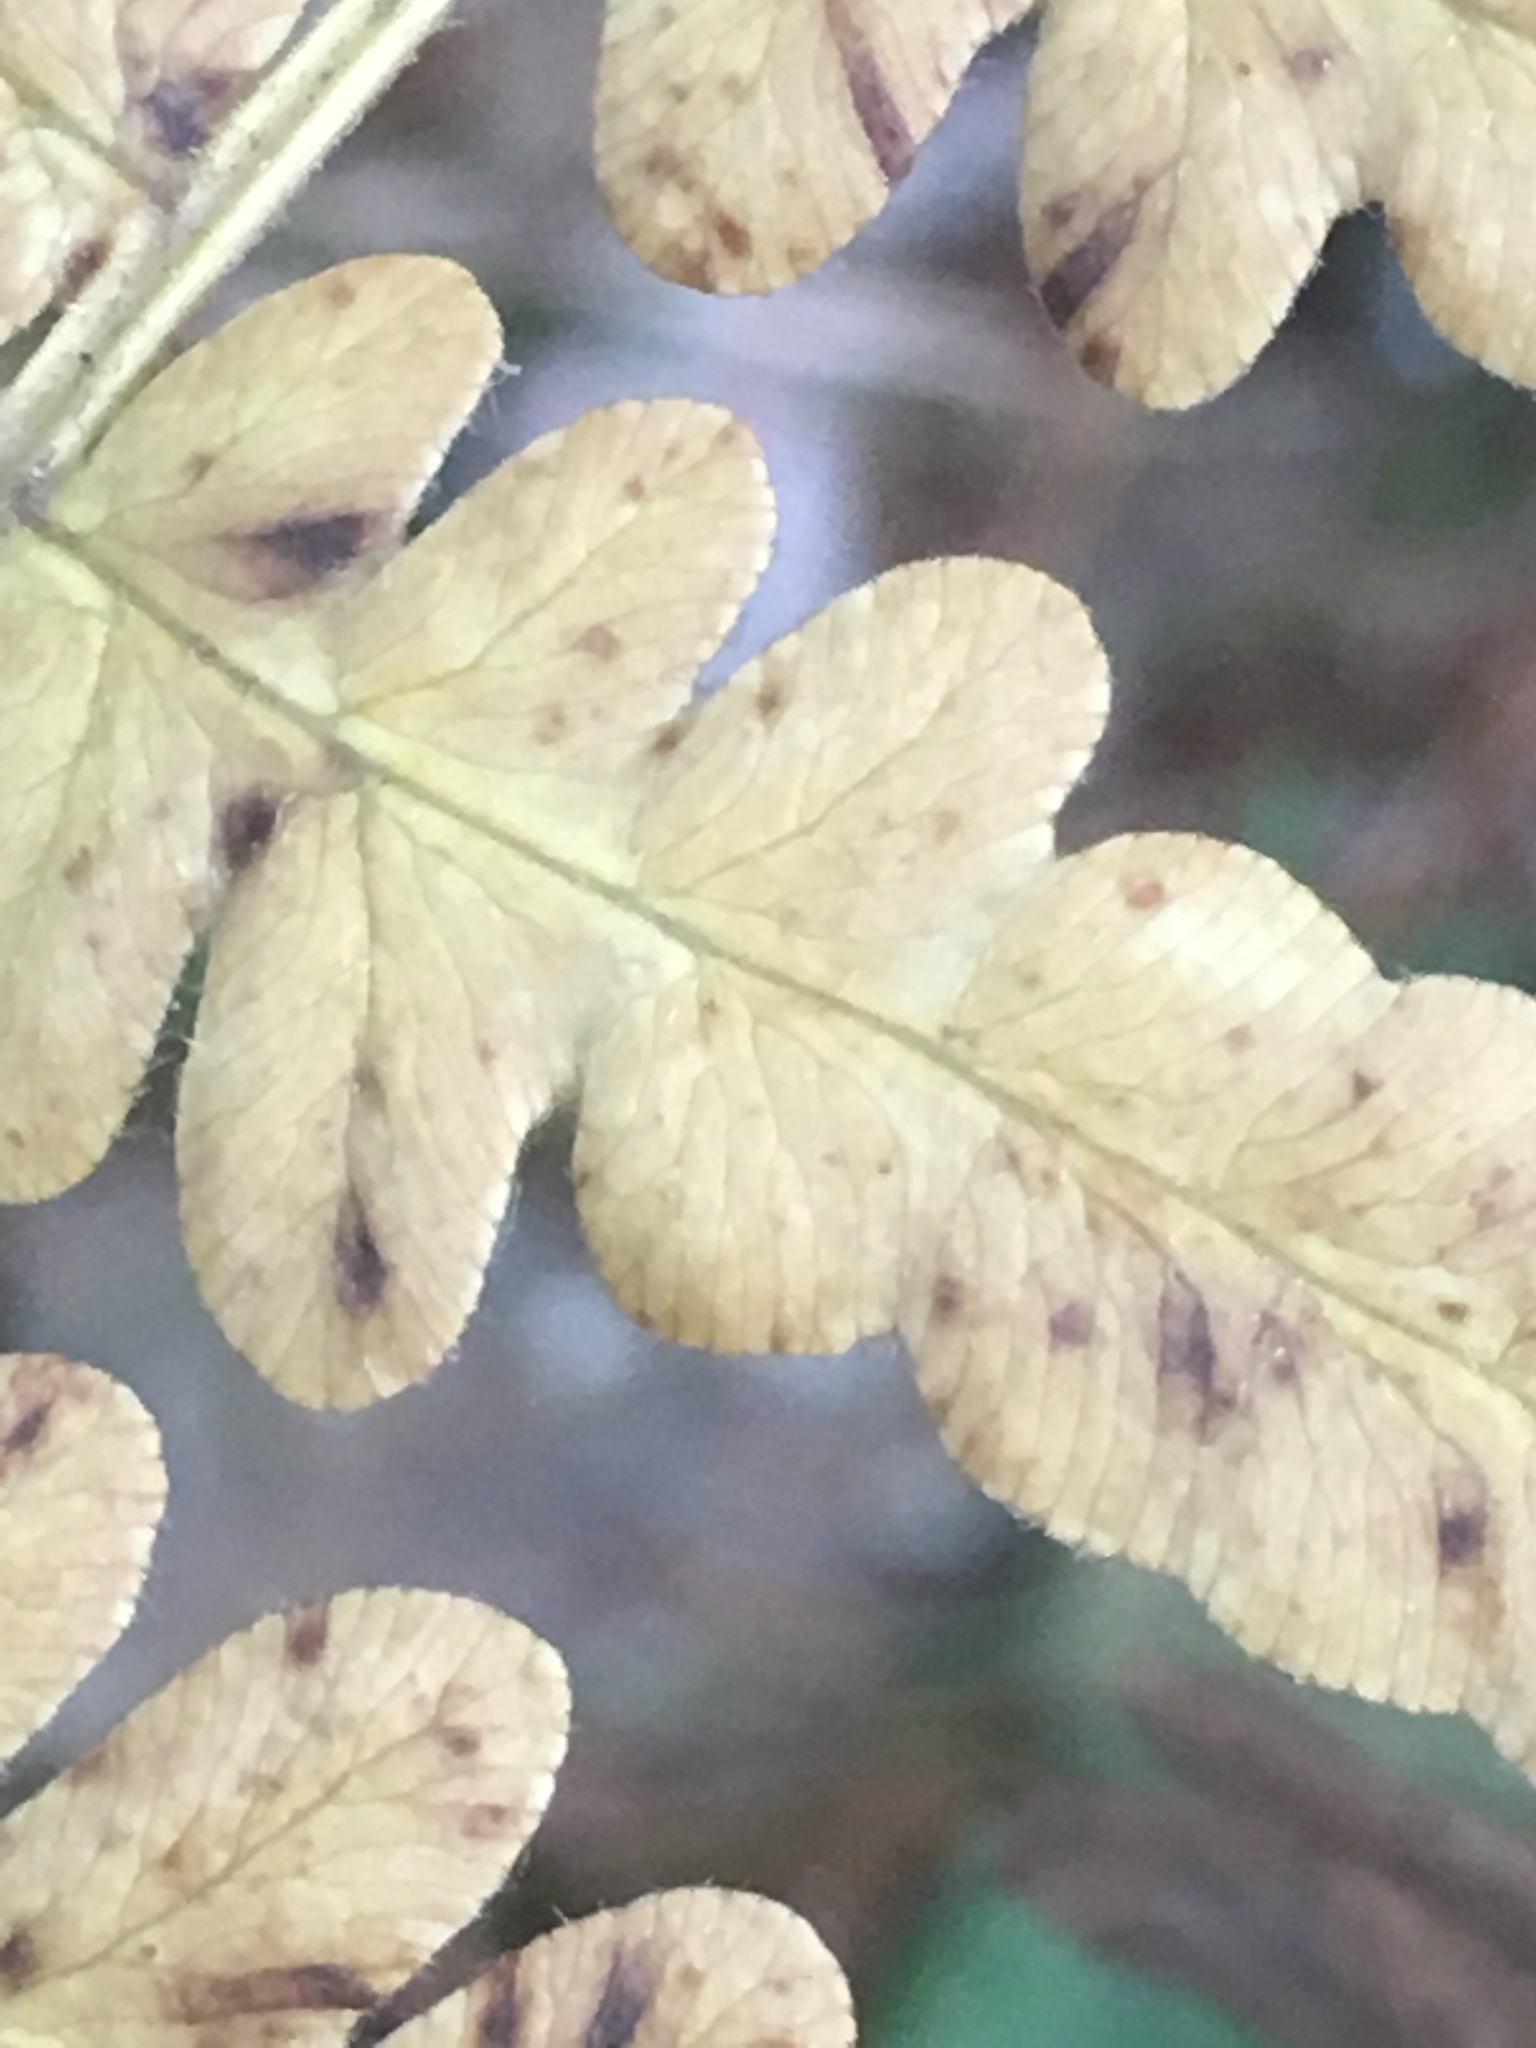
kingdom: Plantae
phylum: Tracheophyta
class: Polypodiopsida
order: Polypodiales
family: Dennstaedtiaceae
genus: Pteridium
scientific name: Pteridium aquilinum
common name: Bracken
